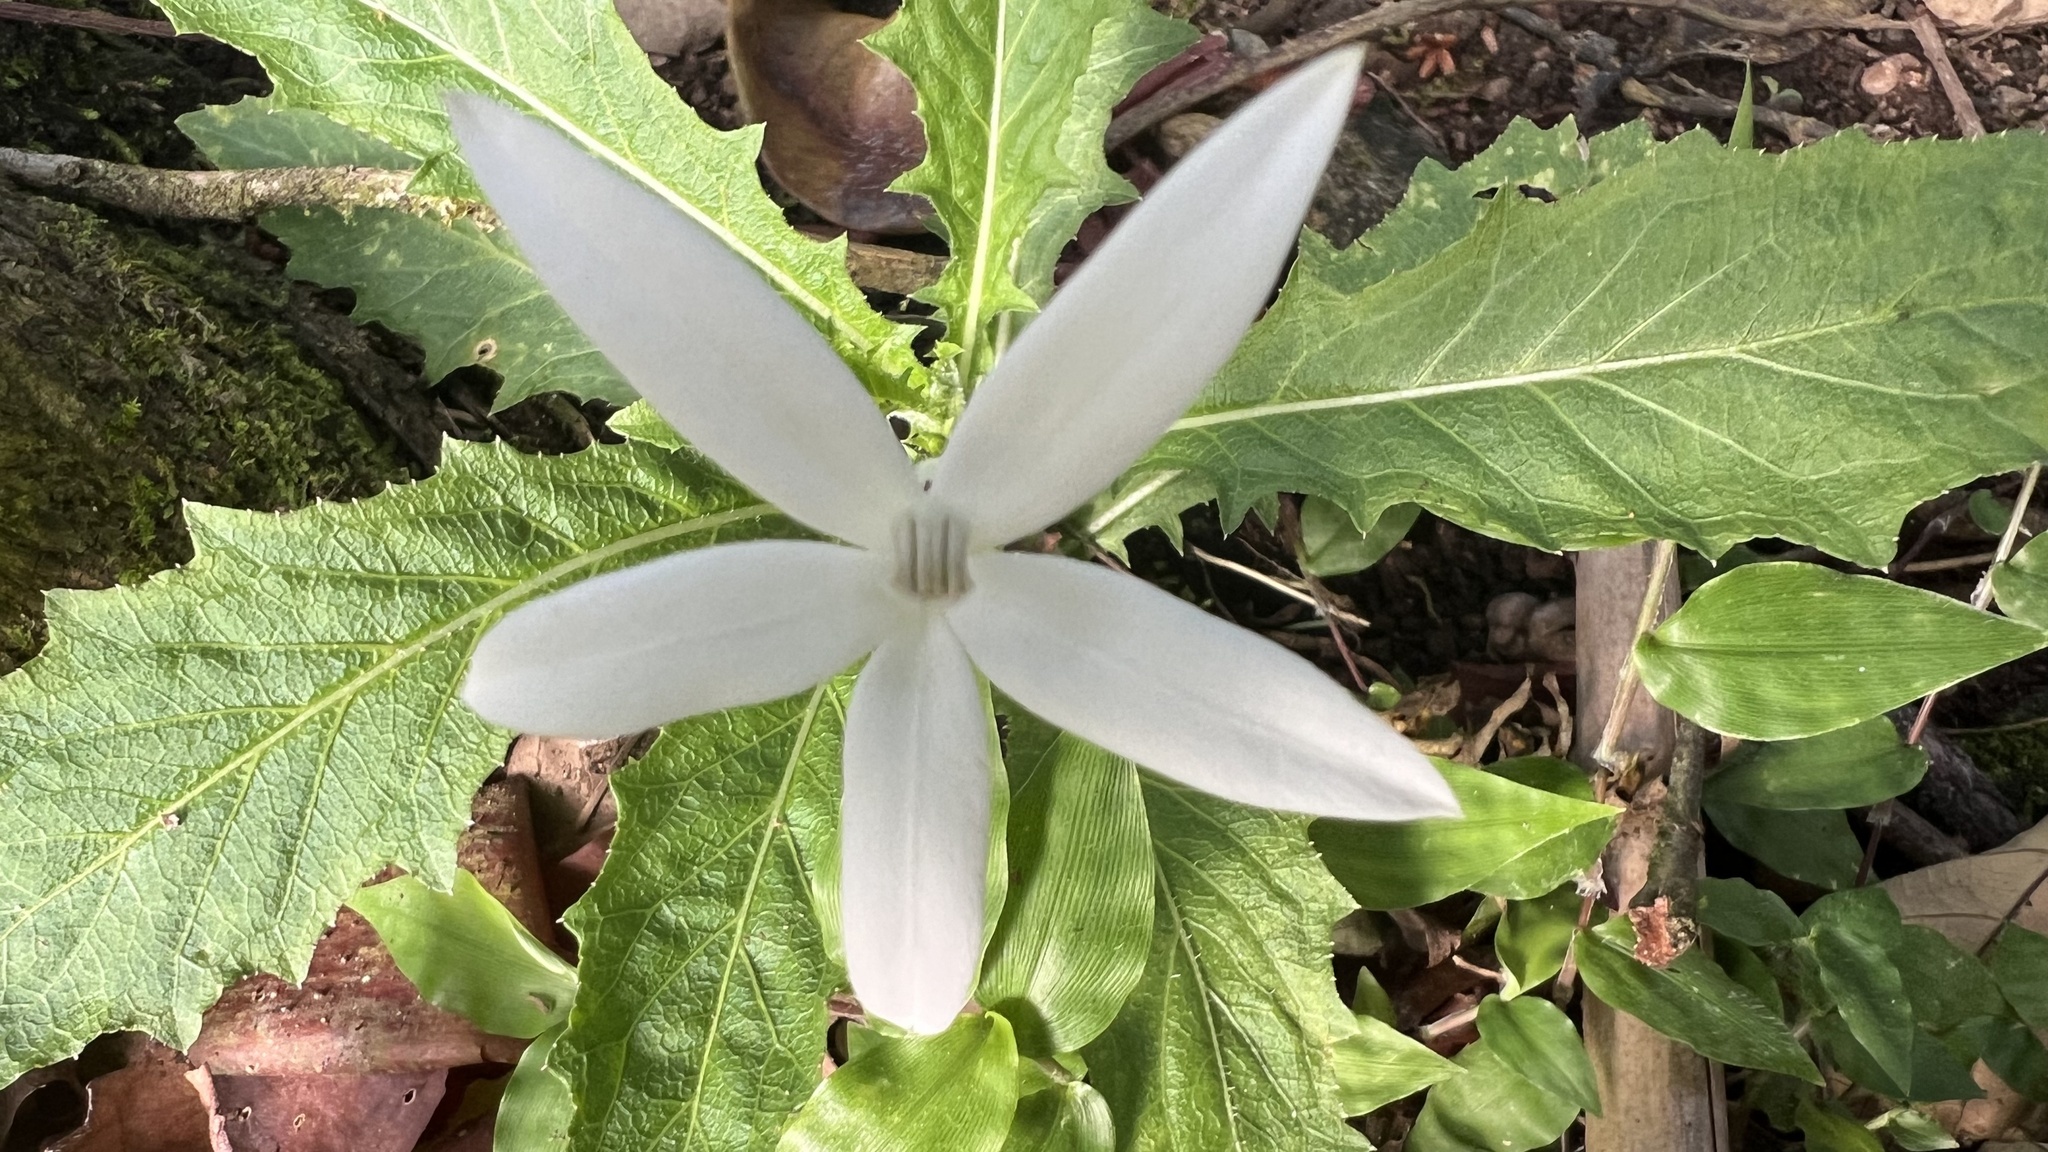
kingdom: Plantae
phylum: Tracheophyta
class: Magnoliopsida
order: Asterales
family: Campanulaceae
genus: Hippobroma
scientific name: Hippobroma longiflora
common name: Madamfate
